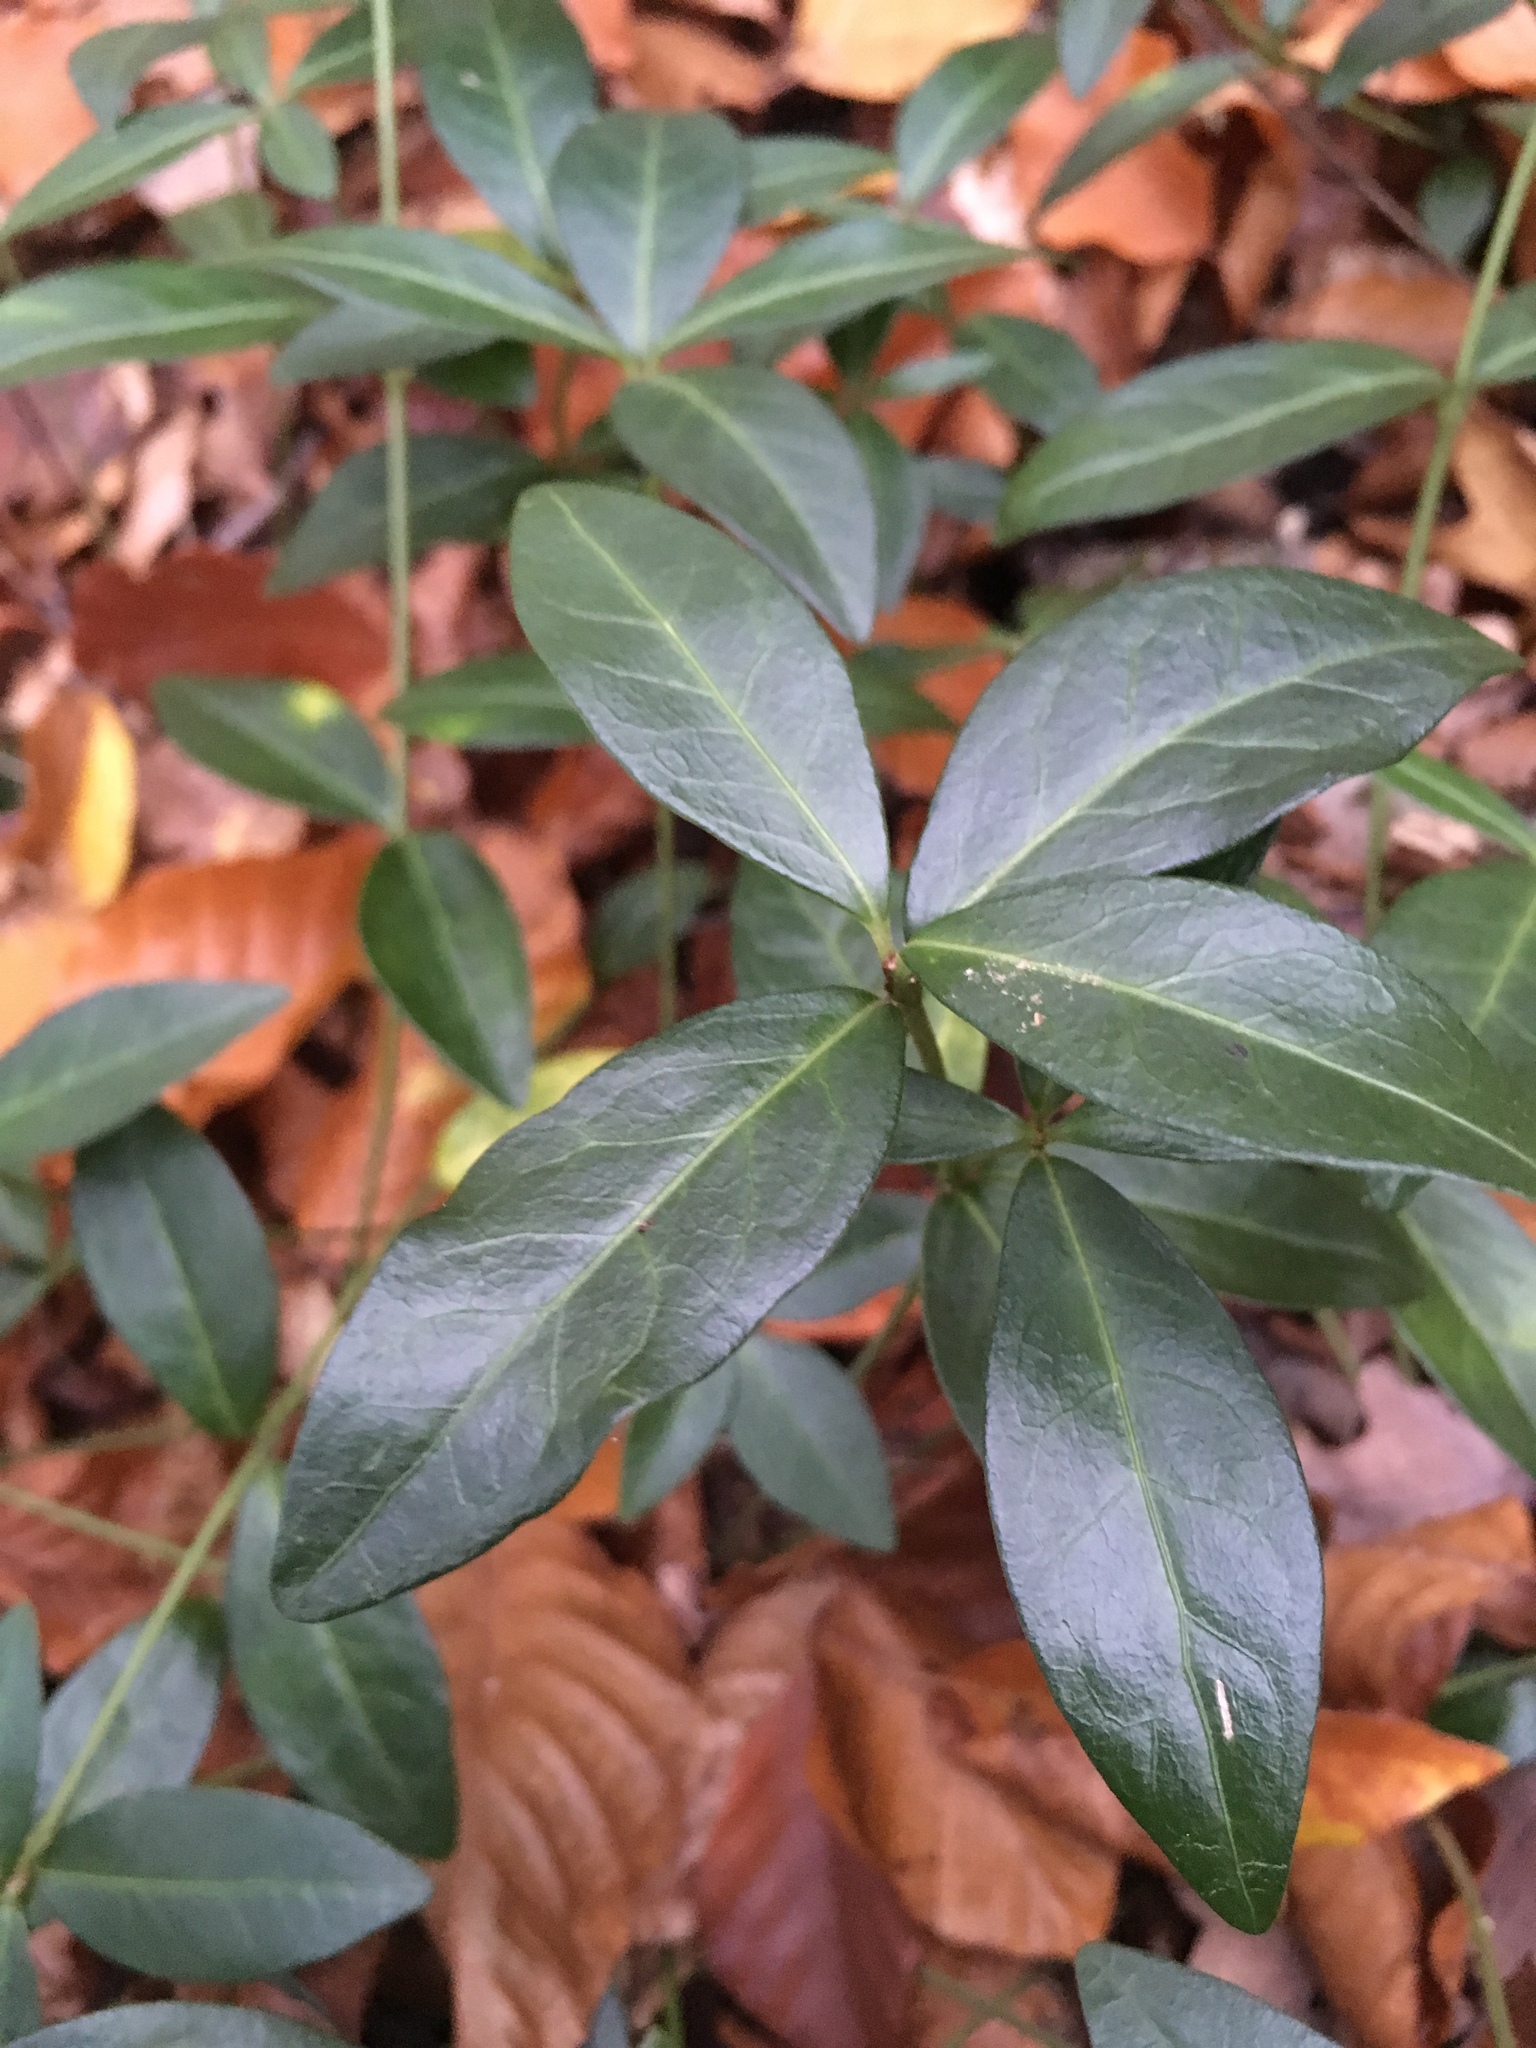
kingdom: Plantae
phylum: Tracheophyta
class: Magnoliopsida
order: Gentianales
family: Apocynaceae
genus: Vinca
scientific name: Vinca minor
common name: Lesser periwinkle
